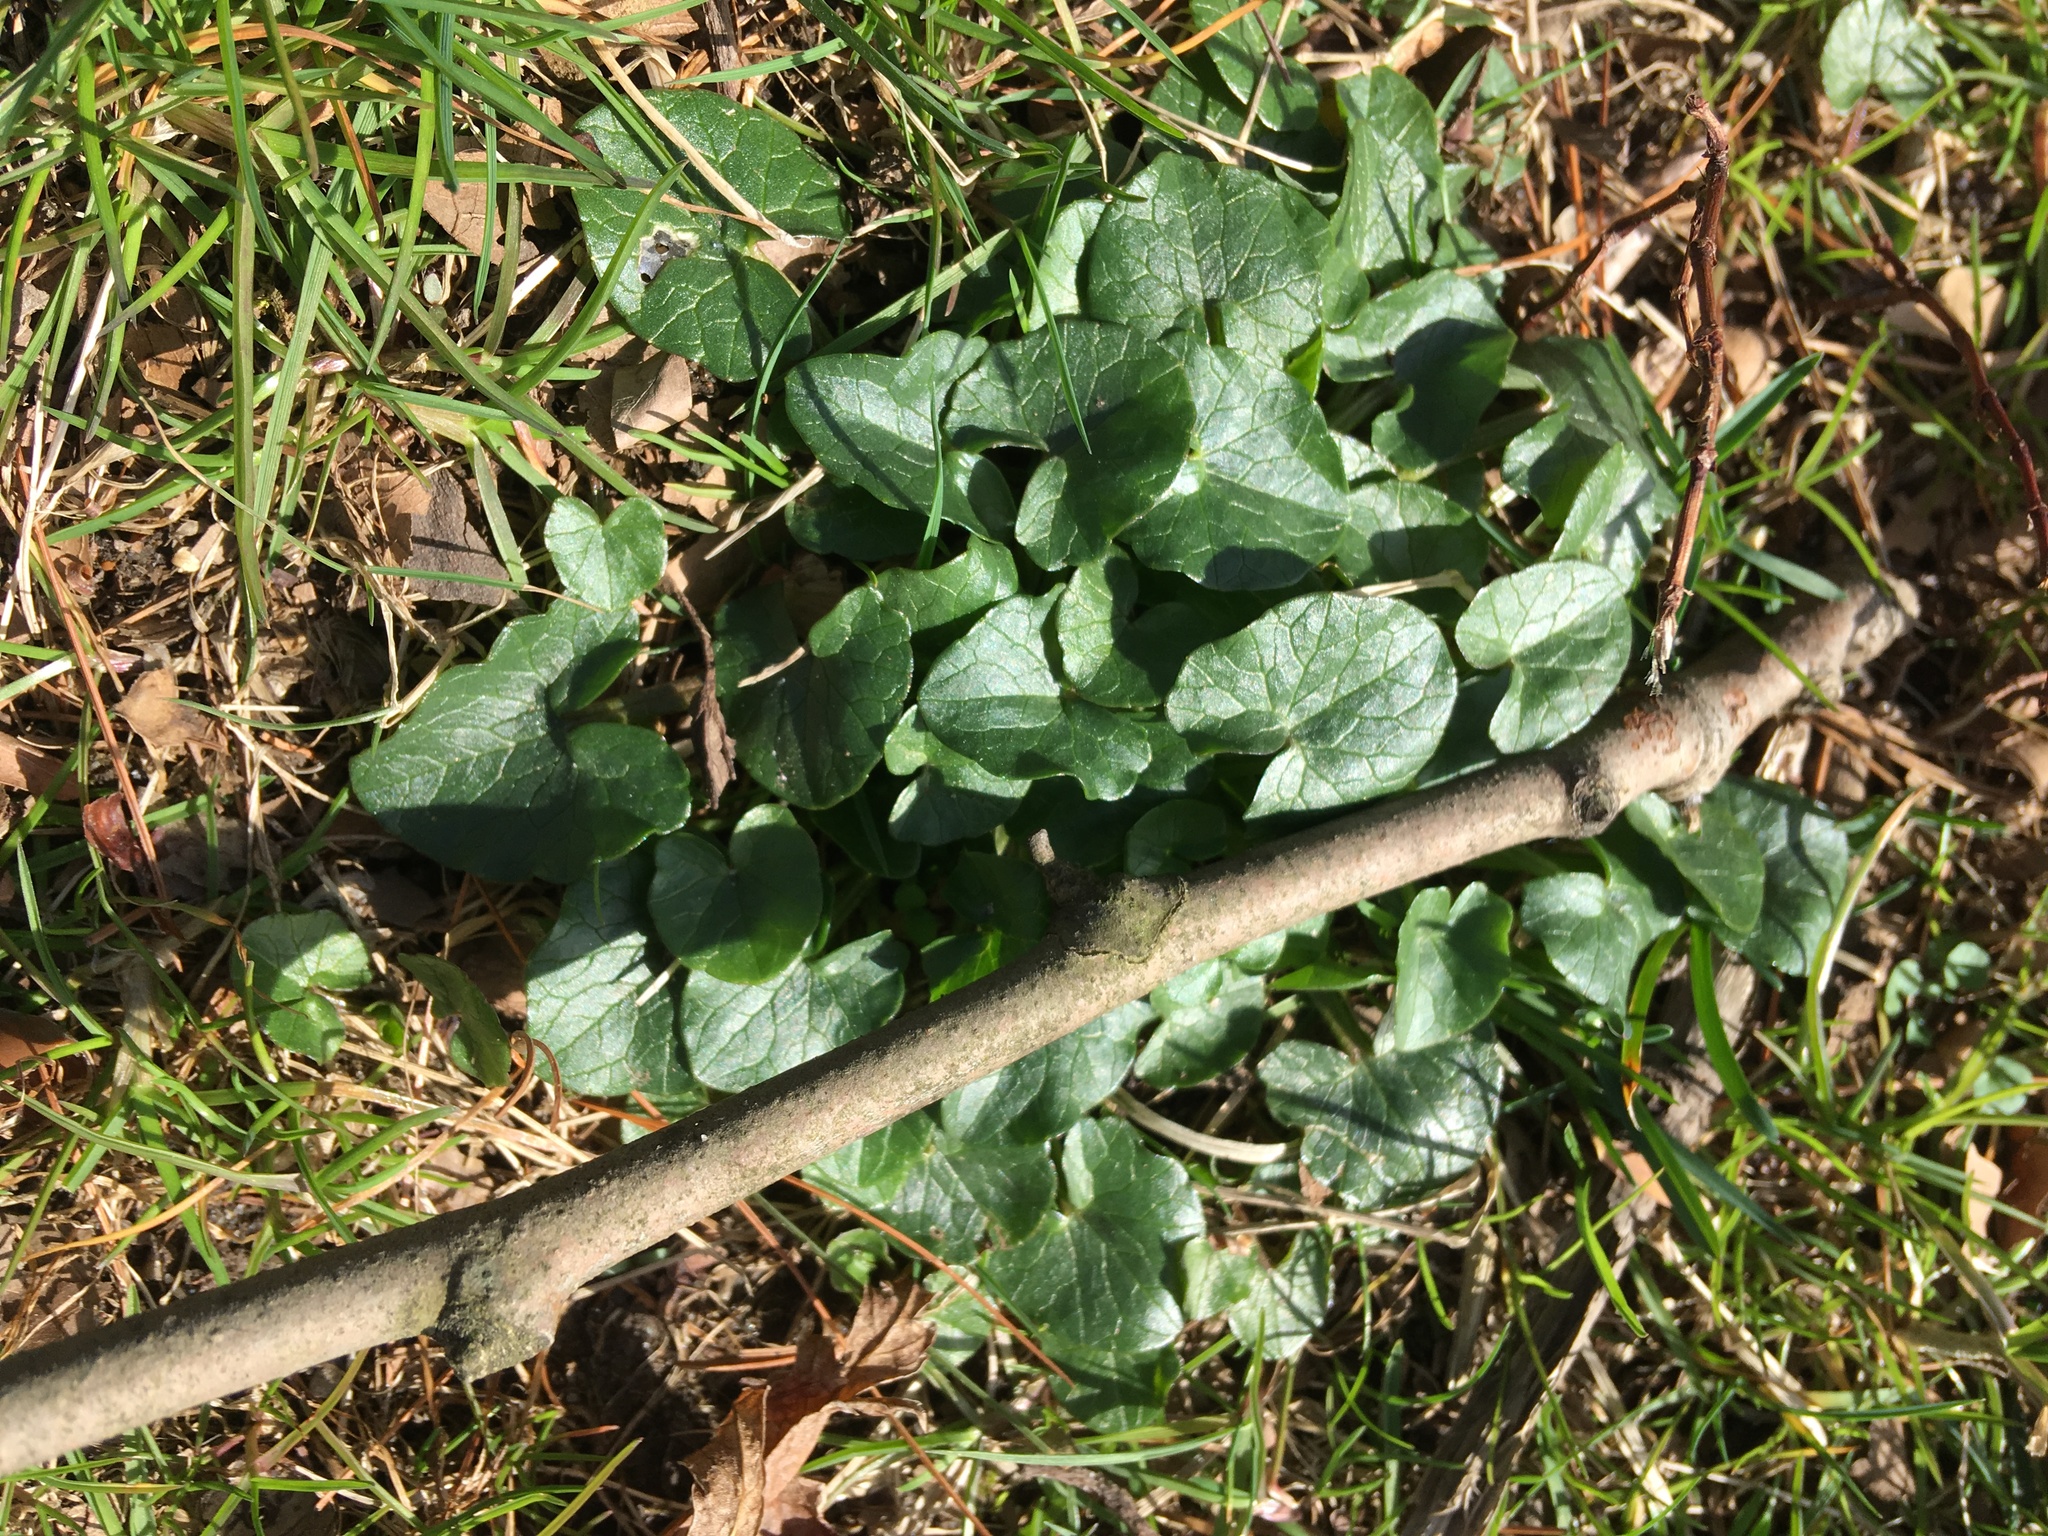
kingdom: Plantae
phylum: Tracheophyta
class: Magnoliopsida
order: Ranunculales
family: Ranunculaceae
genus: Ficaria
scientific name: Ficaria verna
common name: Lesser celandine
